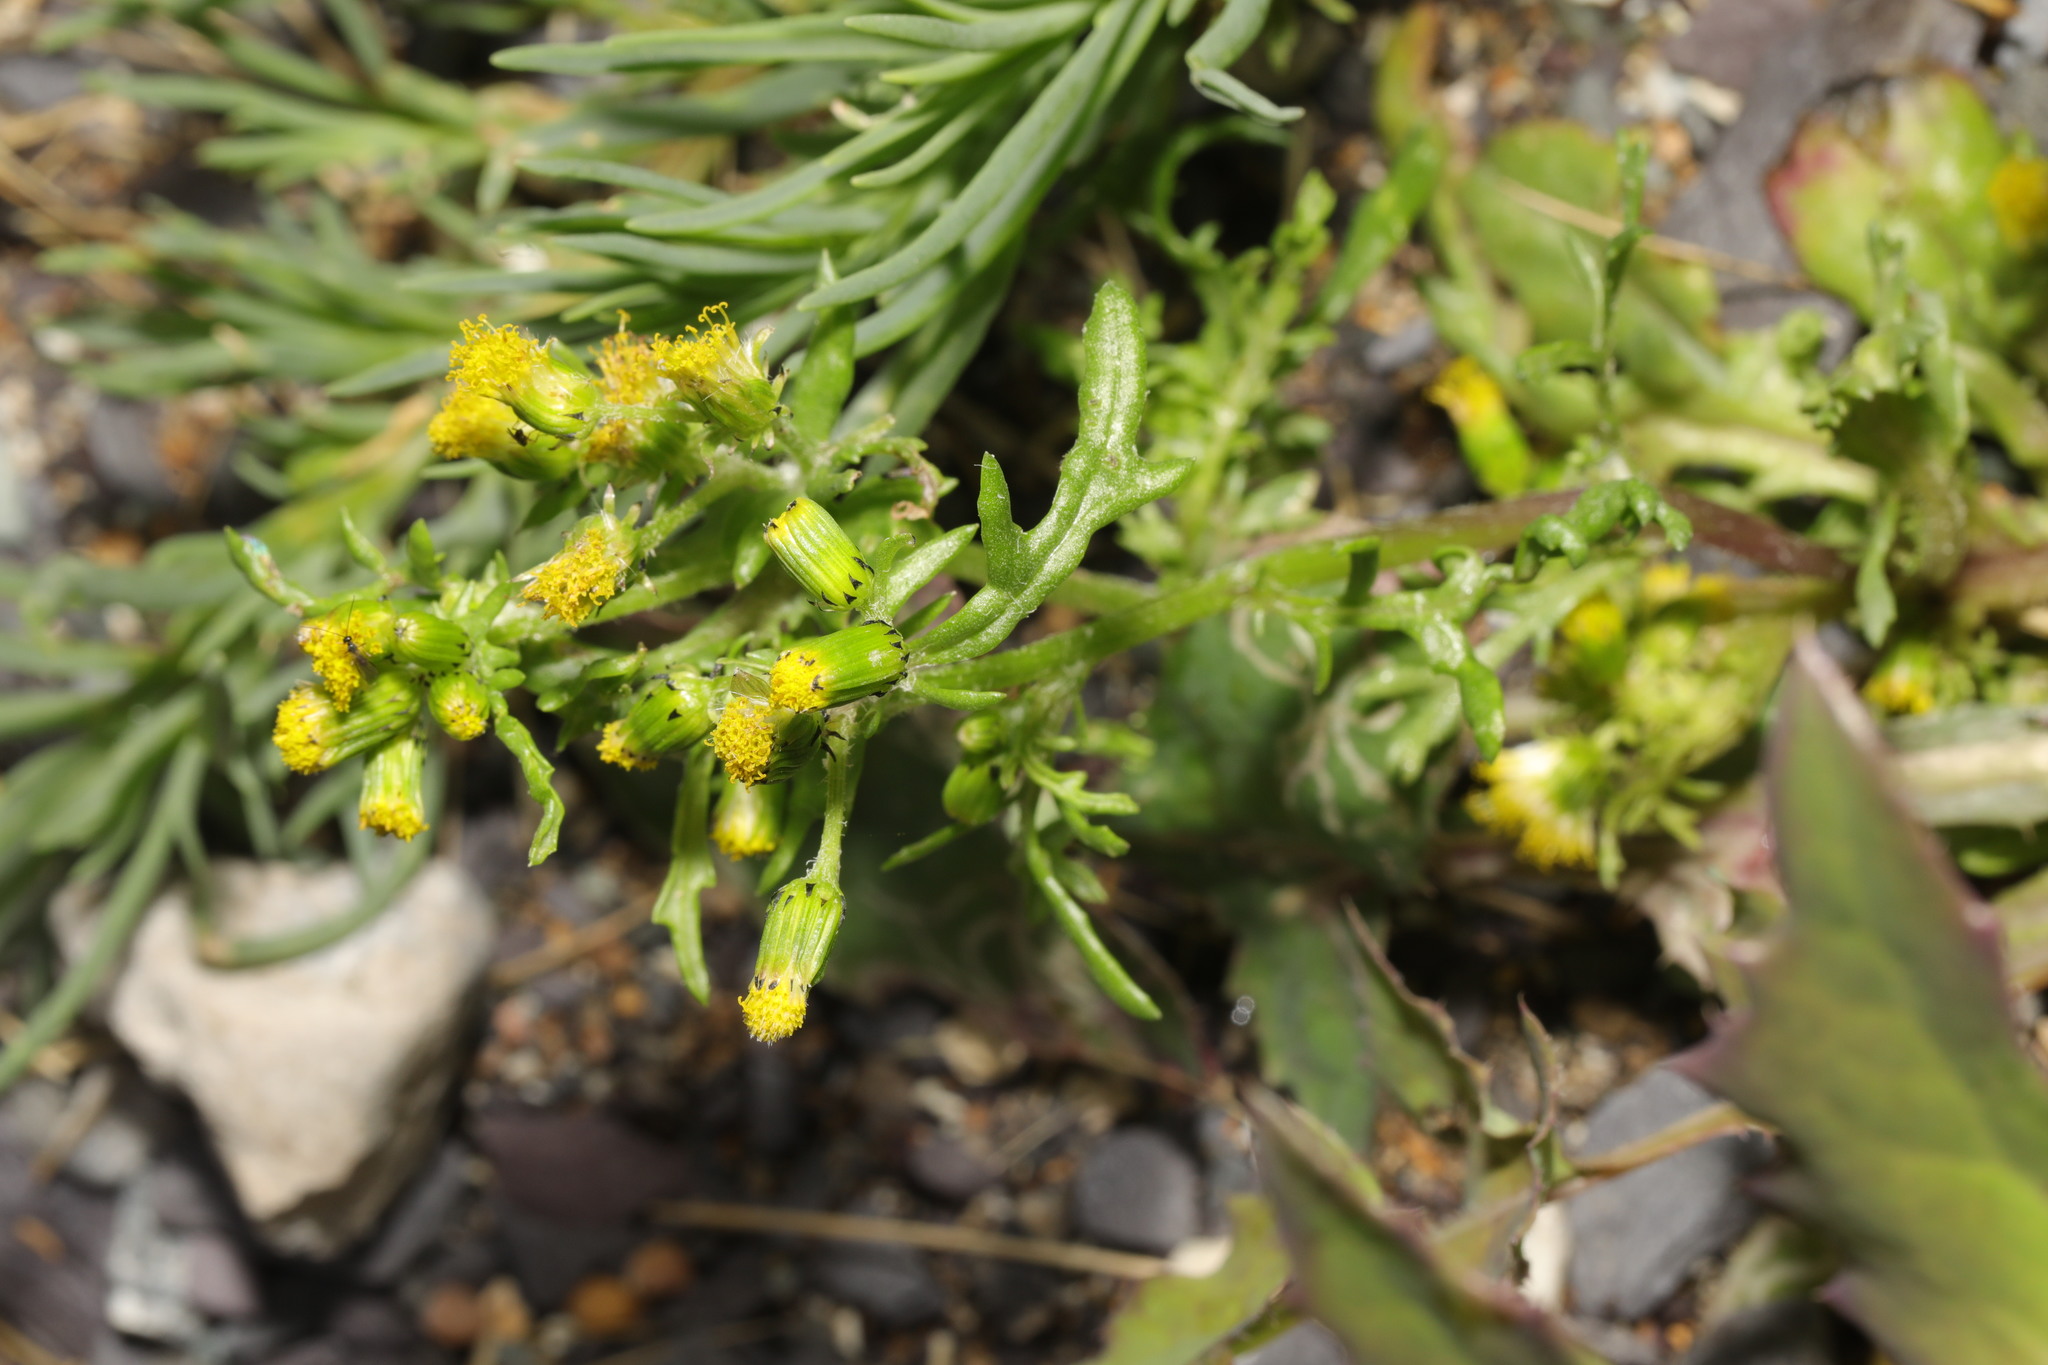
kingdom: Plantae
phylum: Tracheophyta
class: Magnoliopsida
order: Asterales
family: Asteraceae
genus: Senecio
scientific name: Senecio vulgaris
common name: Old-man-in-the-spring
